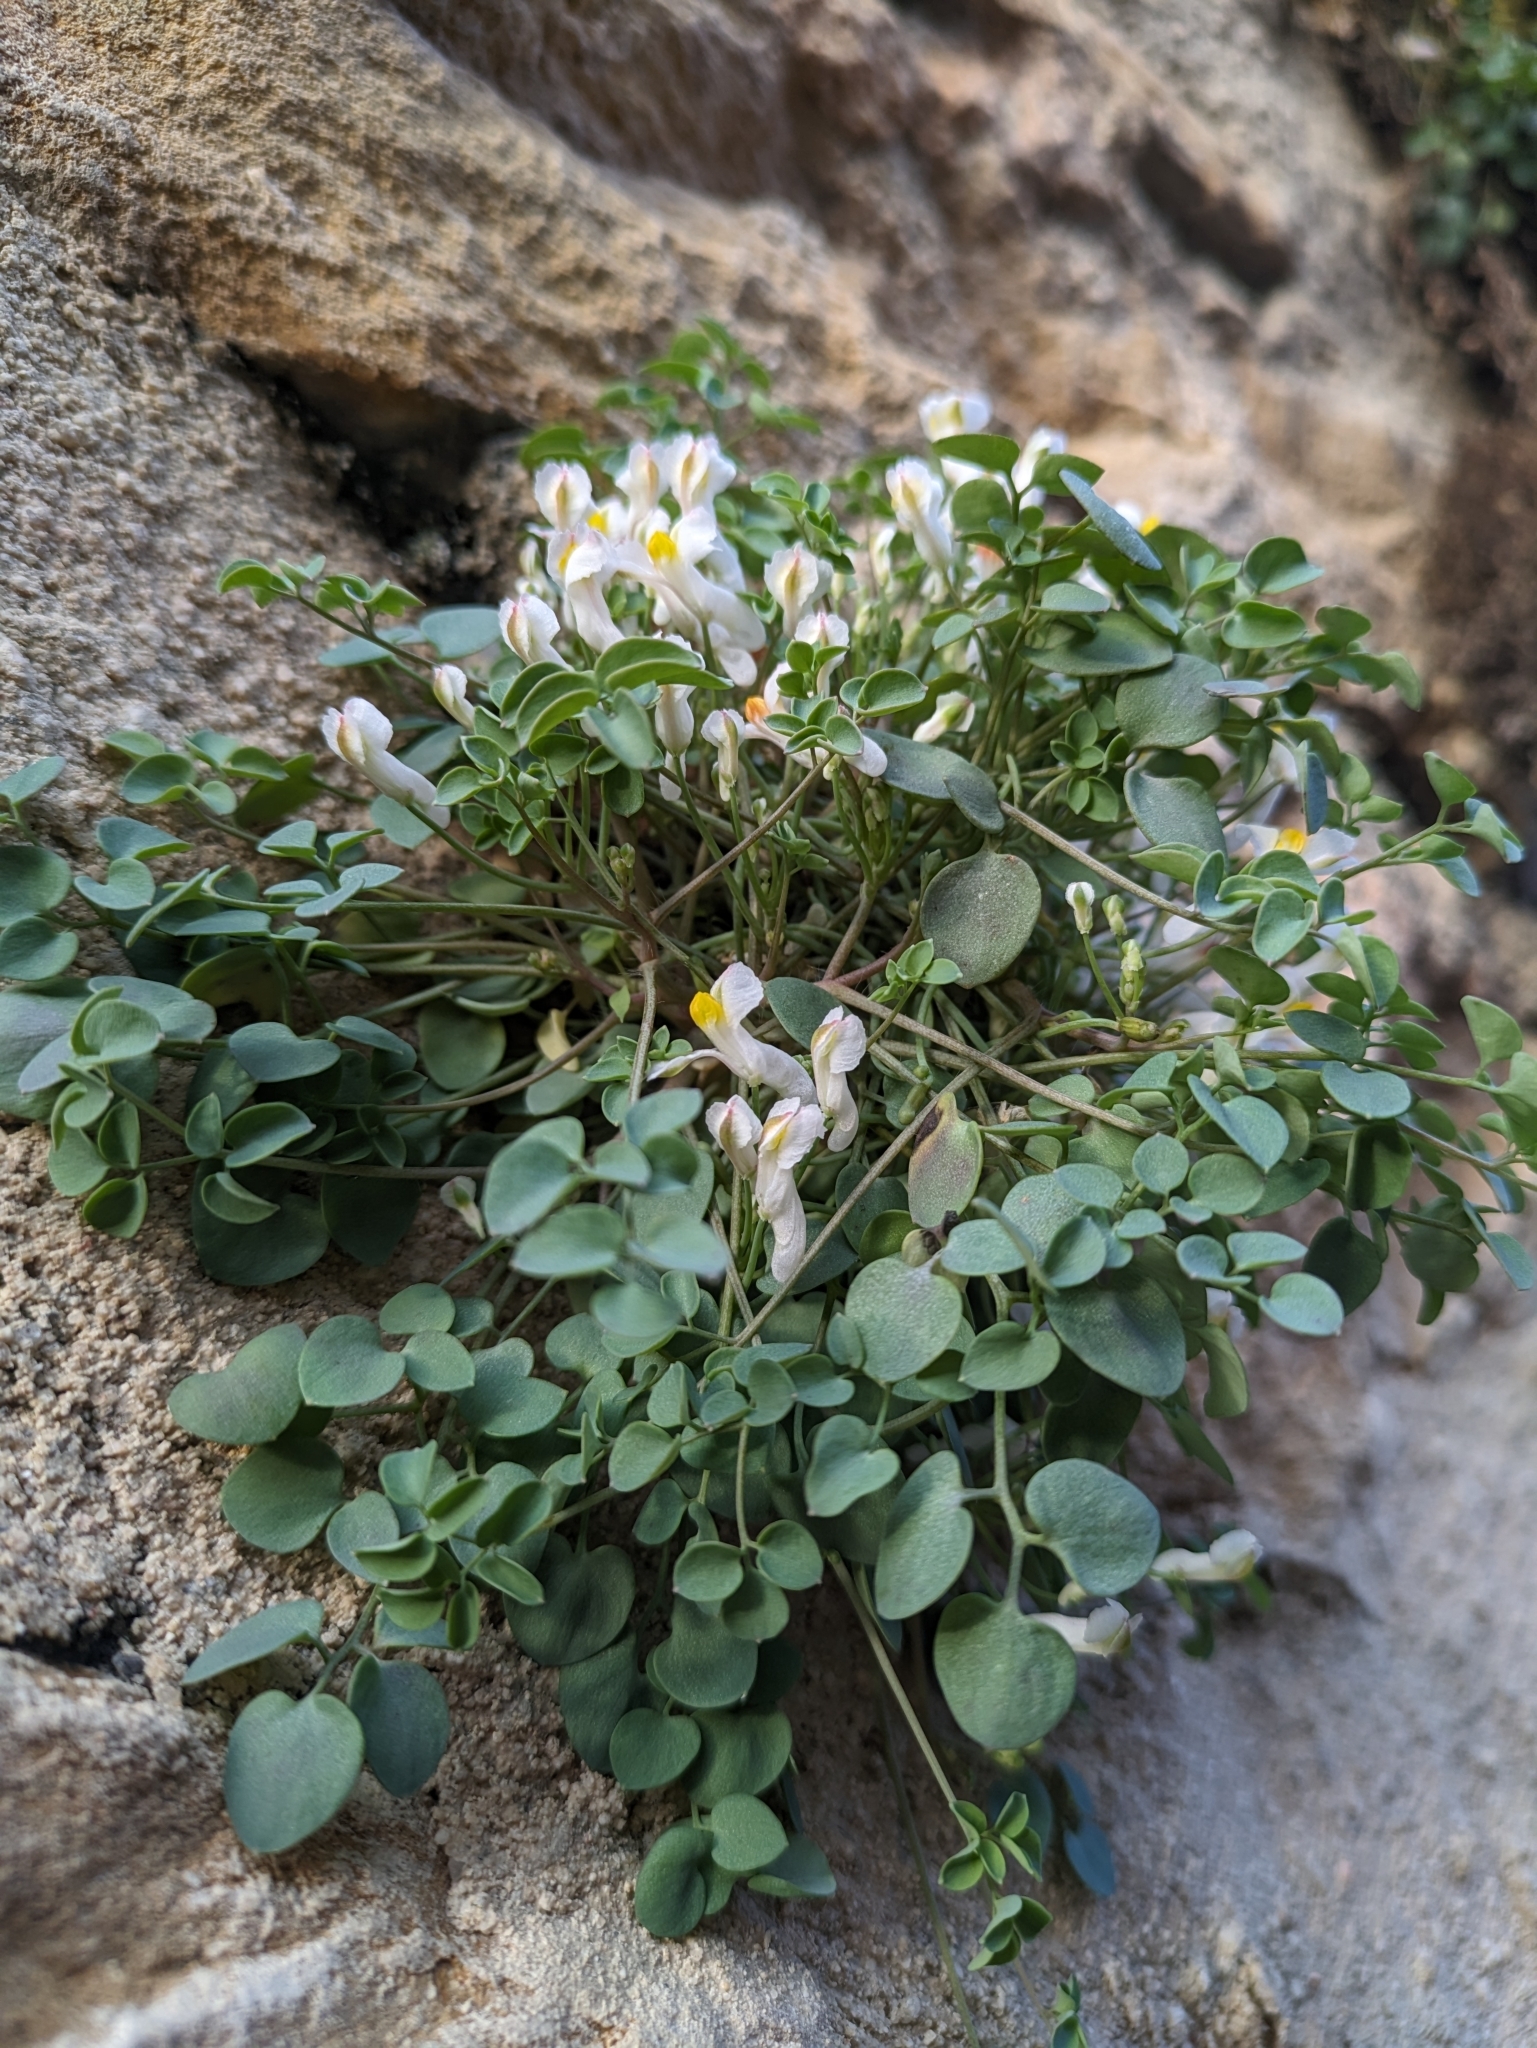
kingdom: Plantae
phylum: Tracheophyta
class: Magnoliopsida
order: Ranunculales
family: Papaveraceae
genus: Sarcocapnos
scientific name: Sarcocapnos enneaphylla
